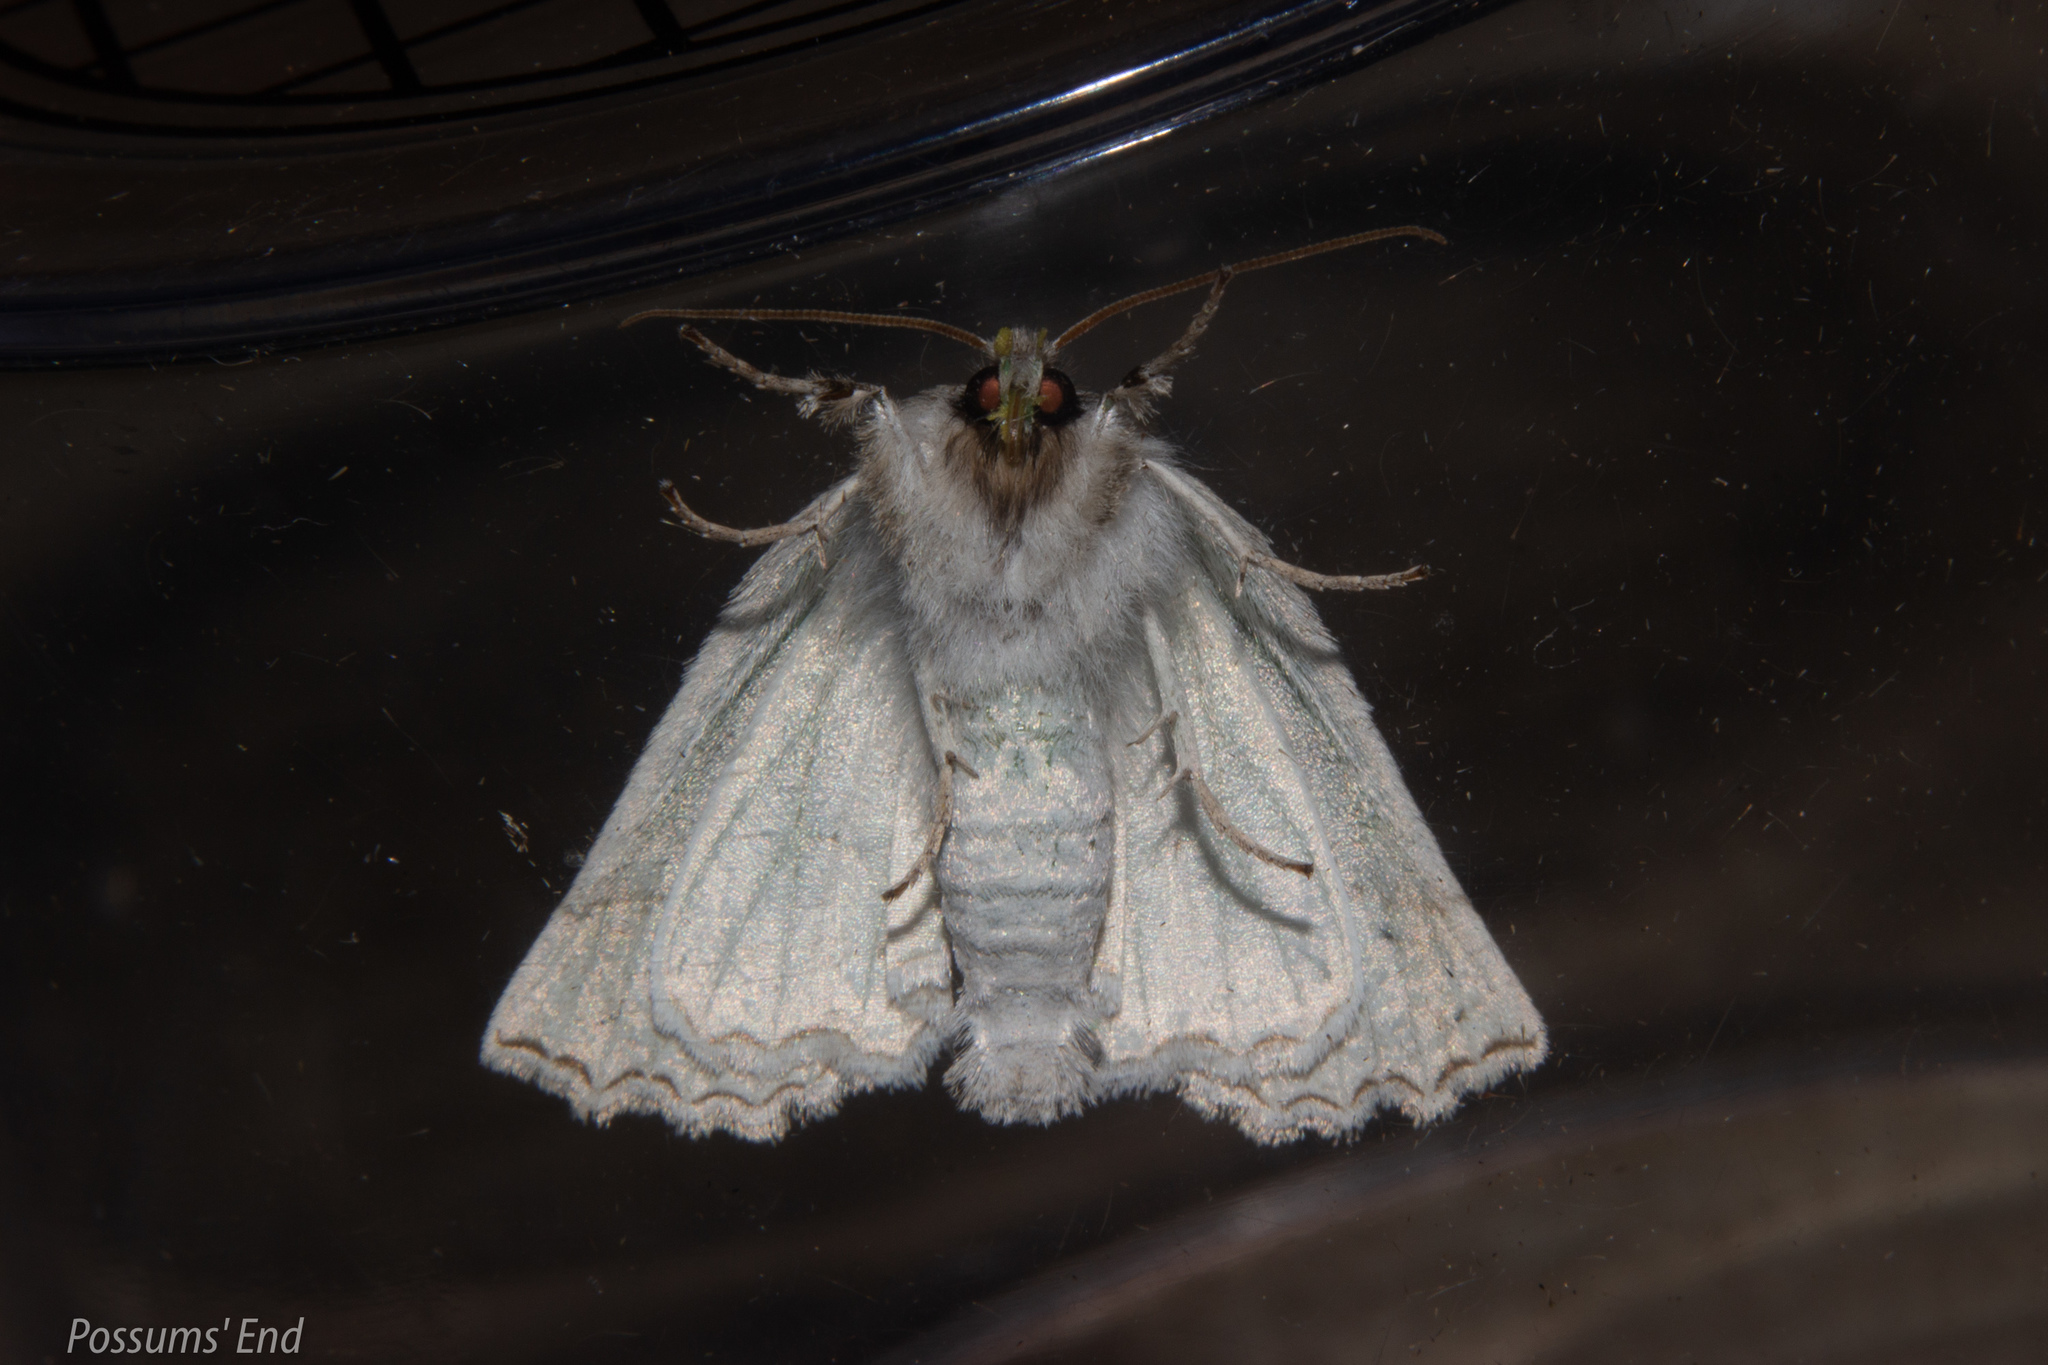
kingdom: Animalia
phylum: Arthropoda
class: Insecta
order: Lepidoptera
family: Geometridae
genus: Declana
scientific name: Declana niveata
